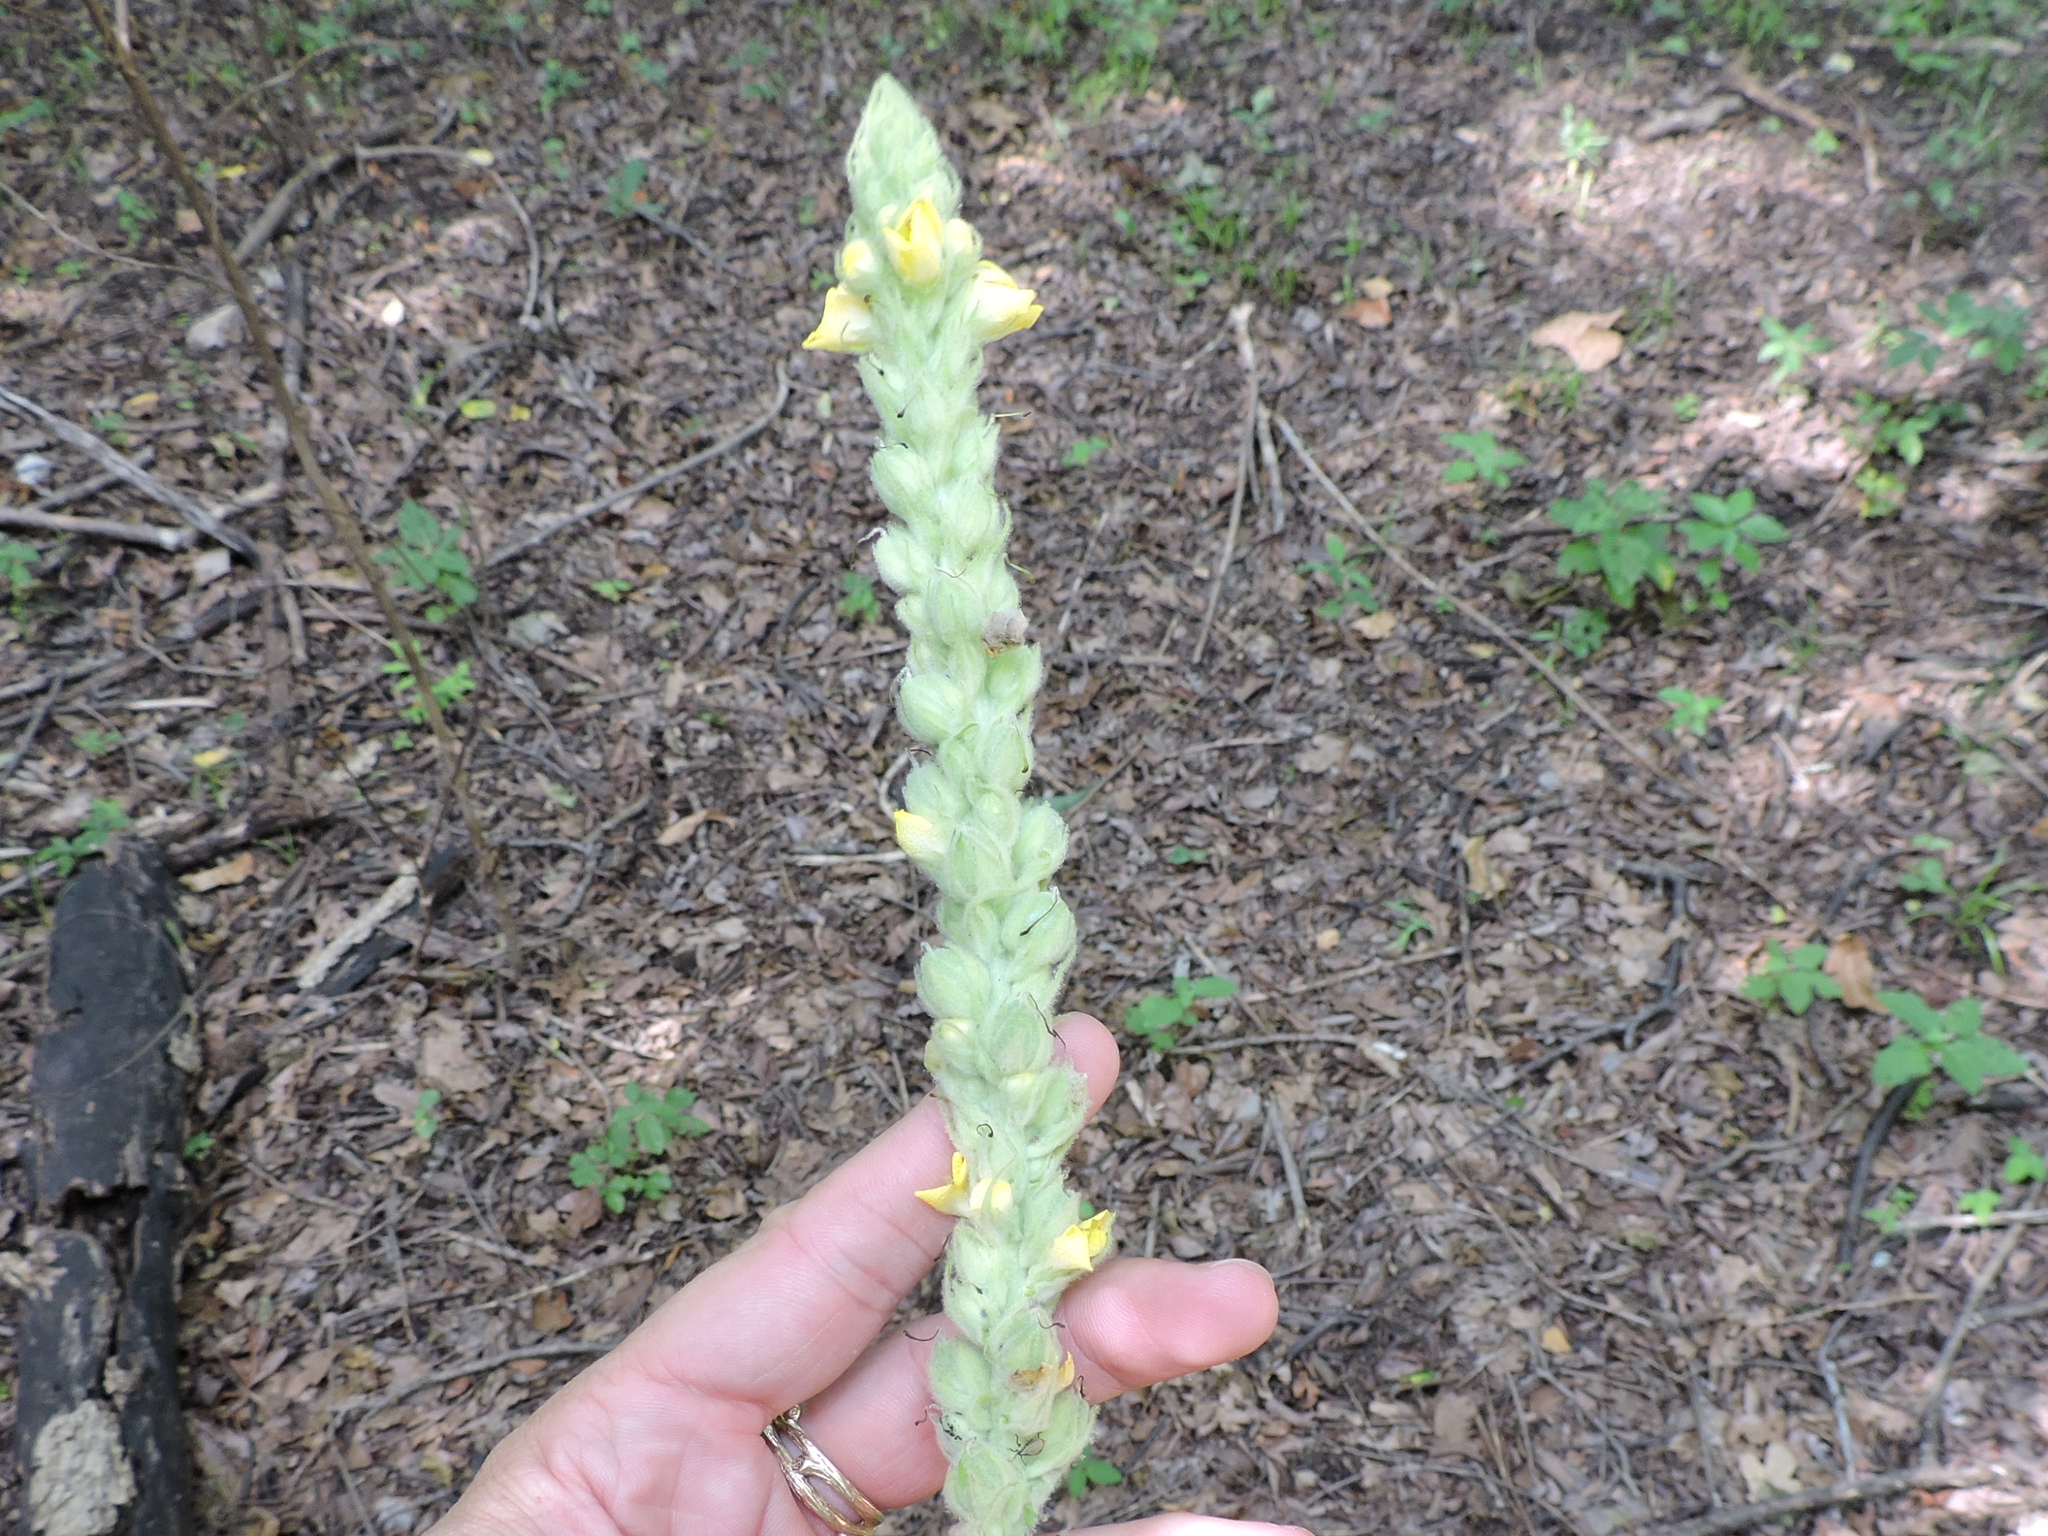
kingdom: Plantae
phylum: Tracheophyta
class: Magnoliopsida
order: Lamiales
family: Scrophulariaceae
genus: Verbascum
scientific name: Verbascum thapsus
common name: Common mullein
